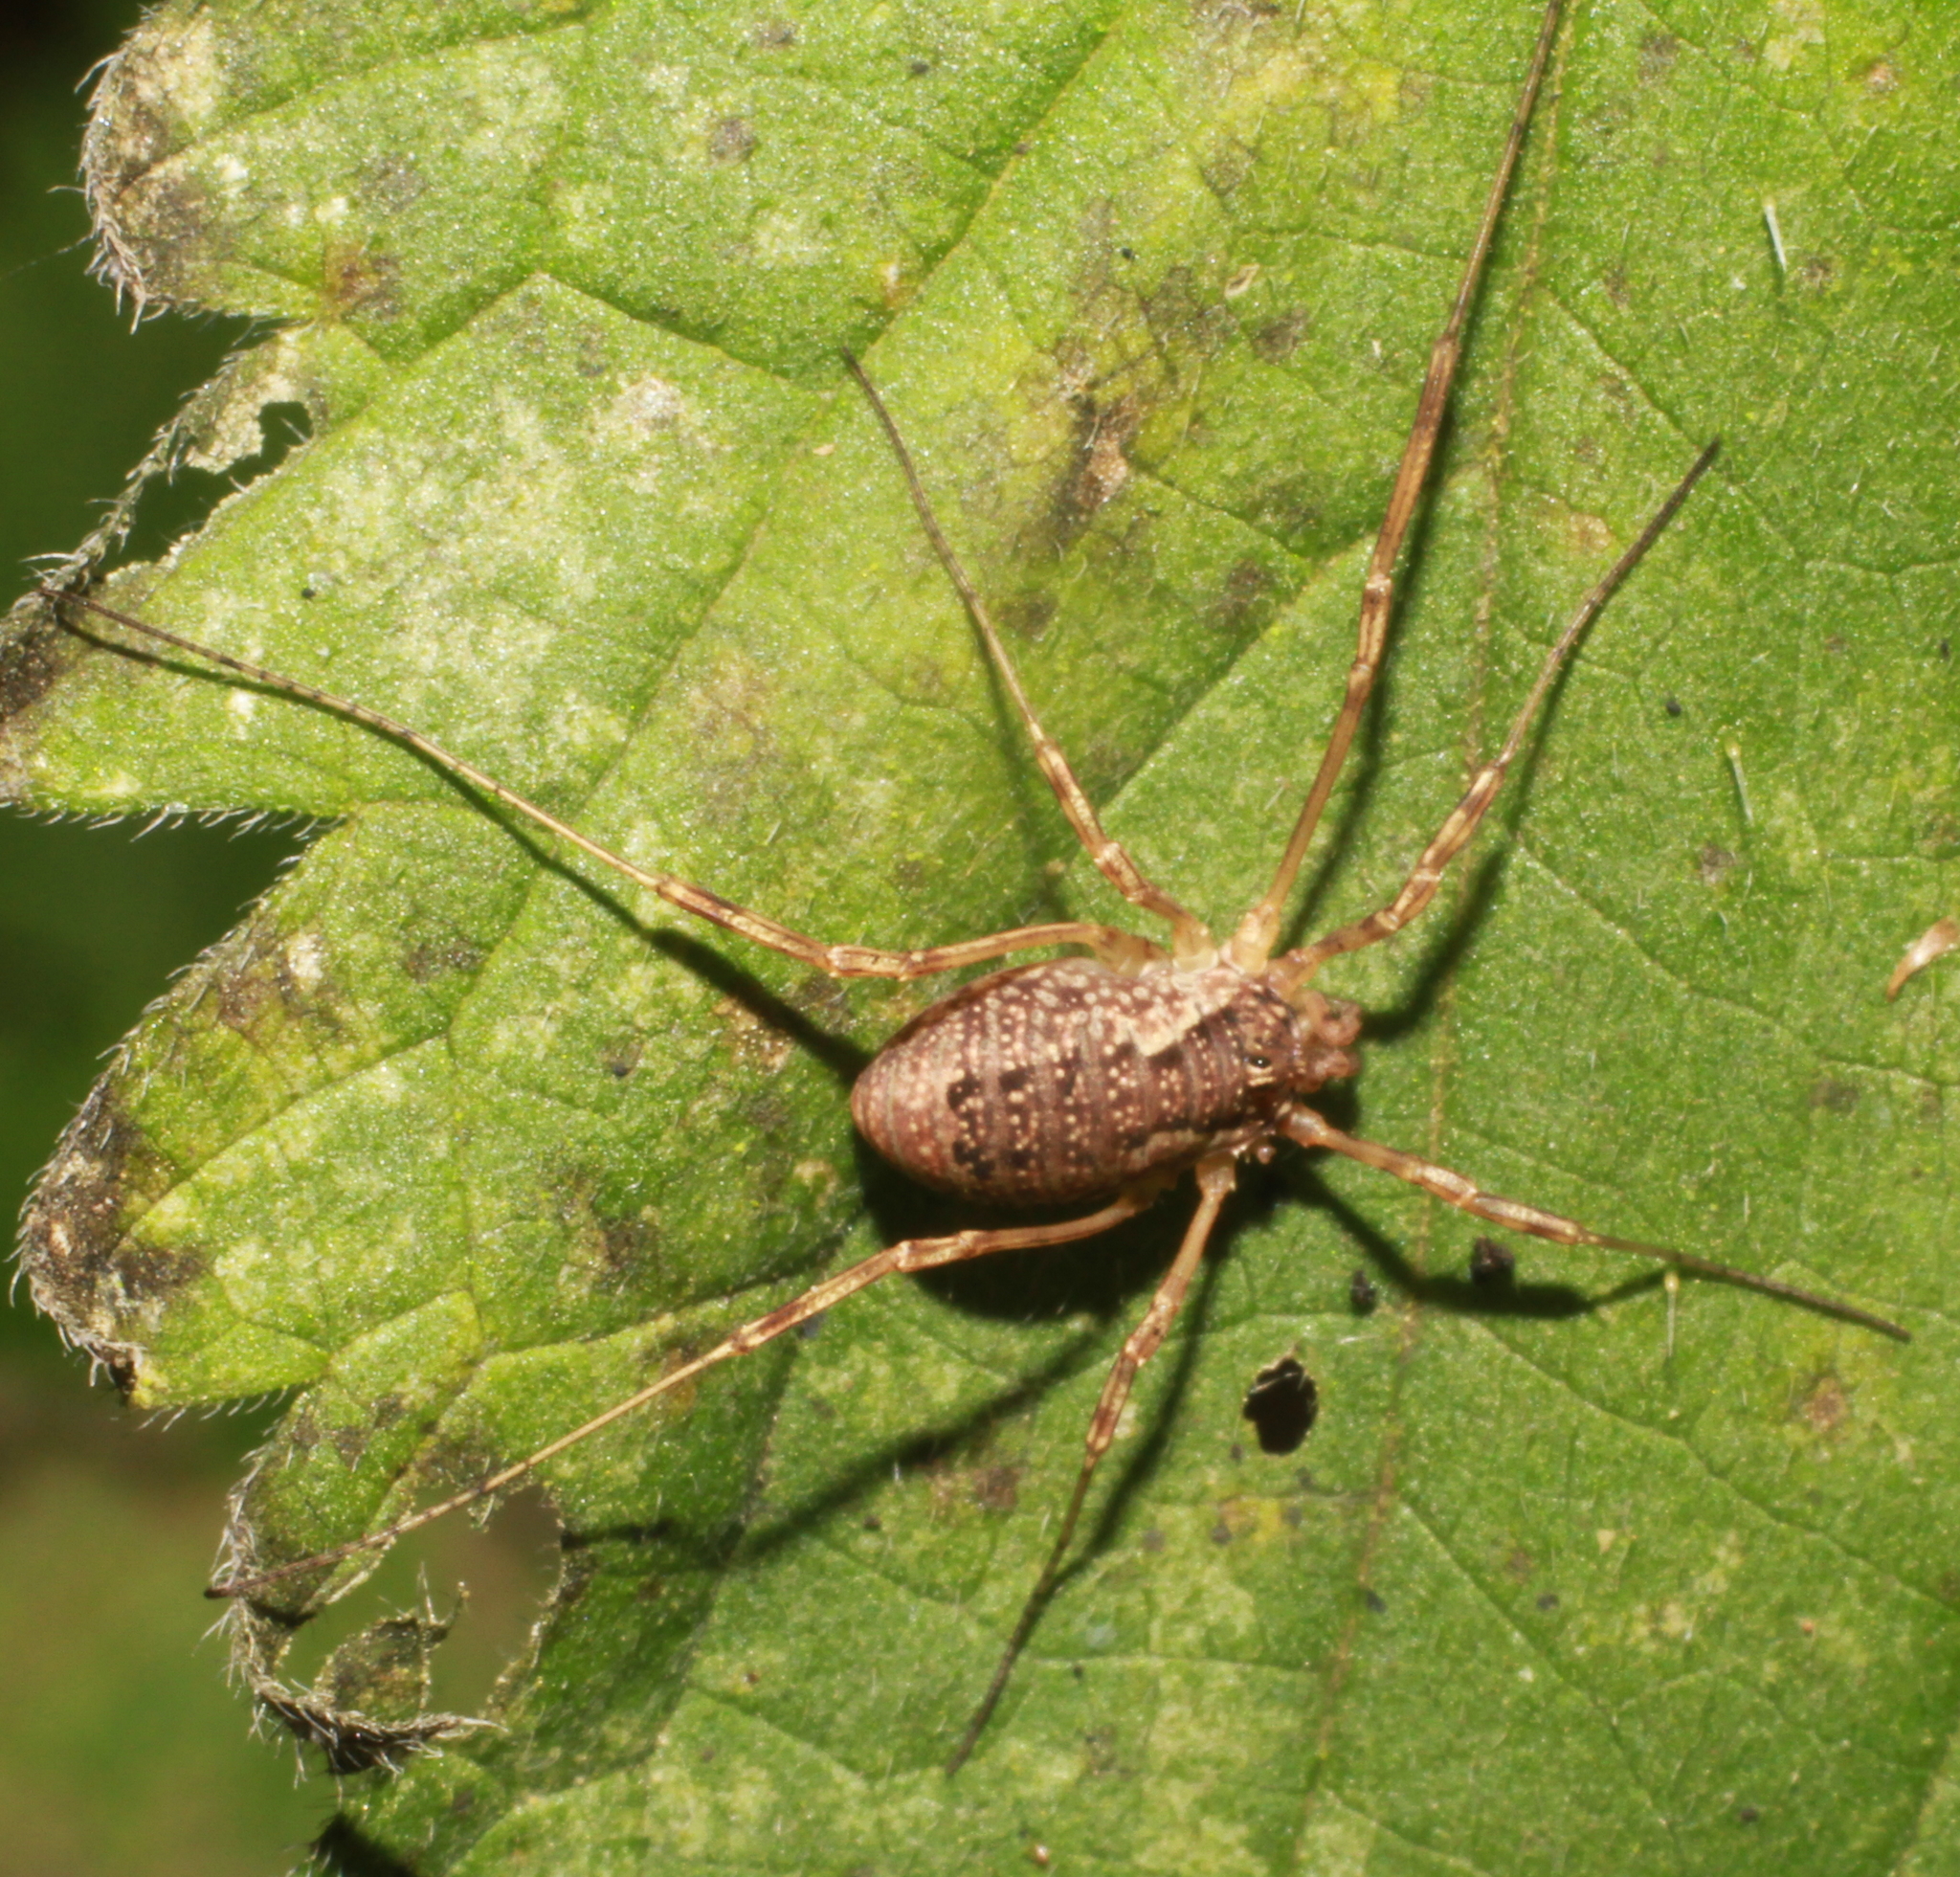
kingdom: Animalia
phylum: Arthropoda
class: Arachnida
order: Opiliones
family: Phalangiidae
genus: Oligolophus
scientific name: Oligolophus tridens
